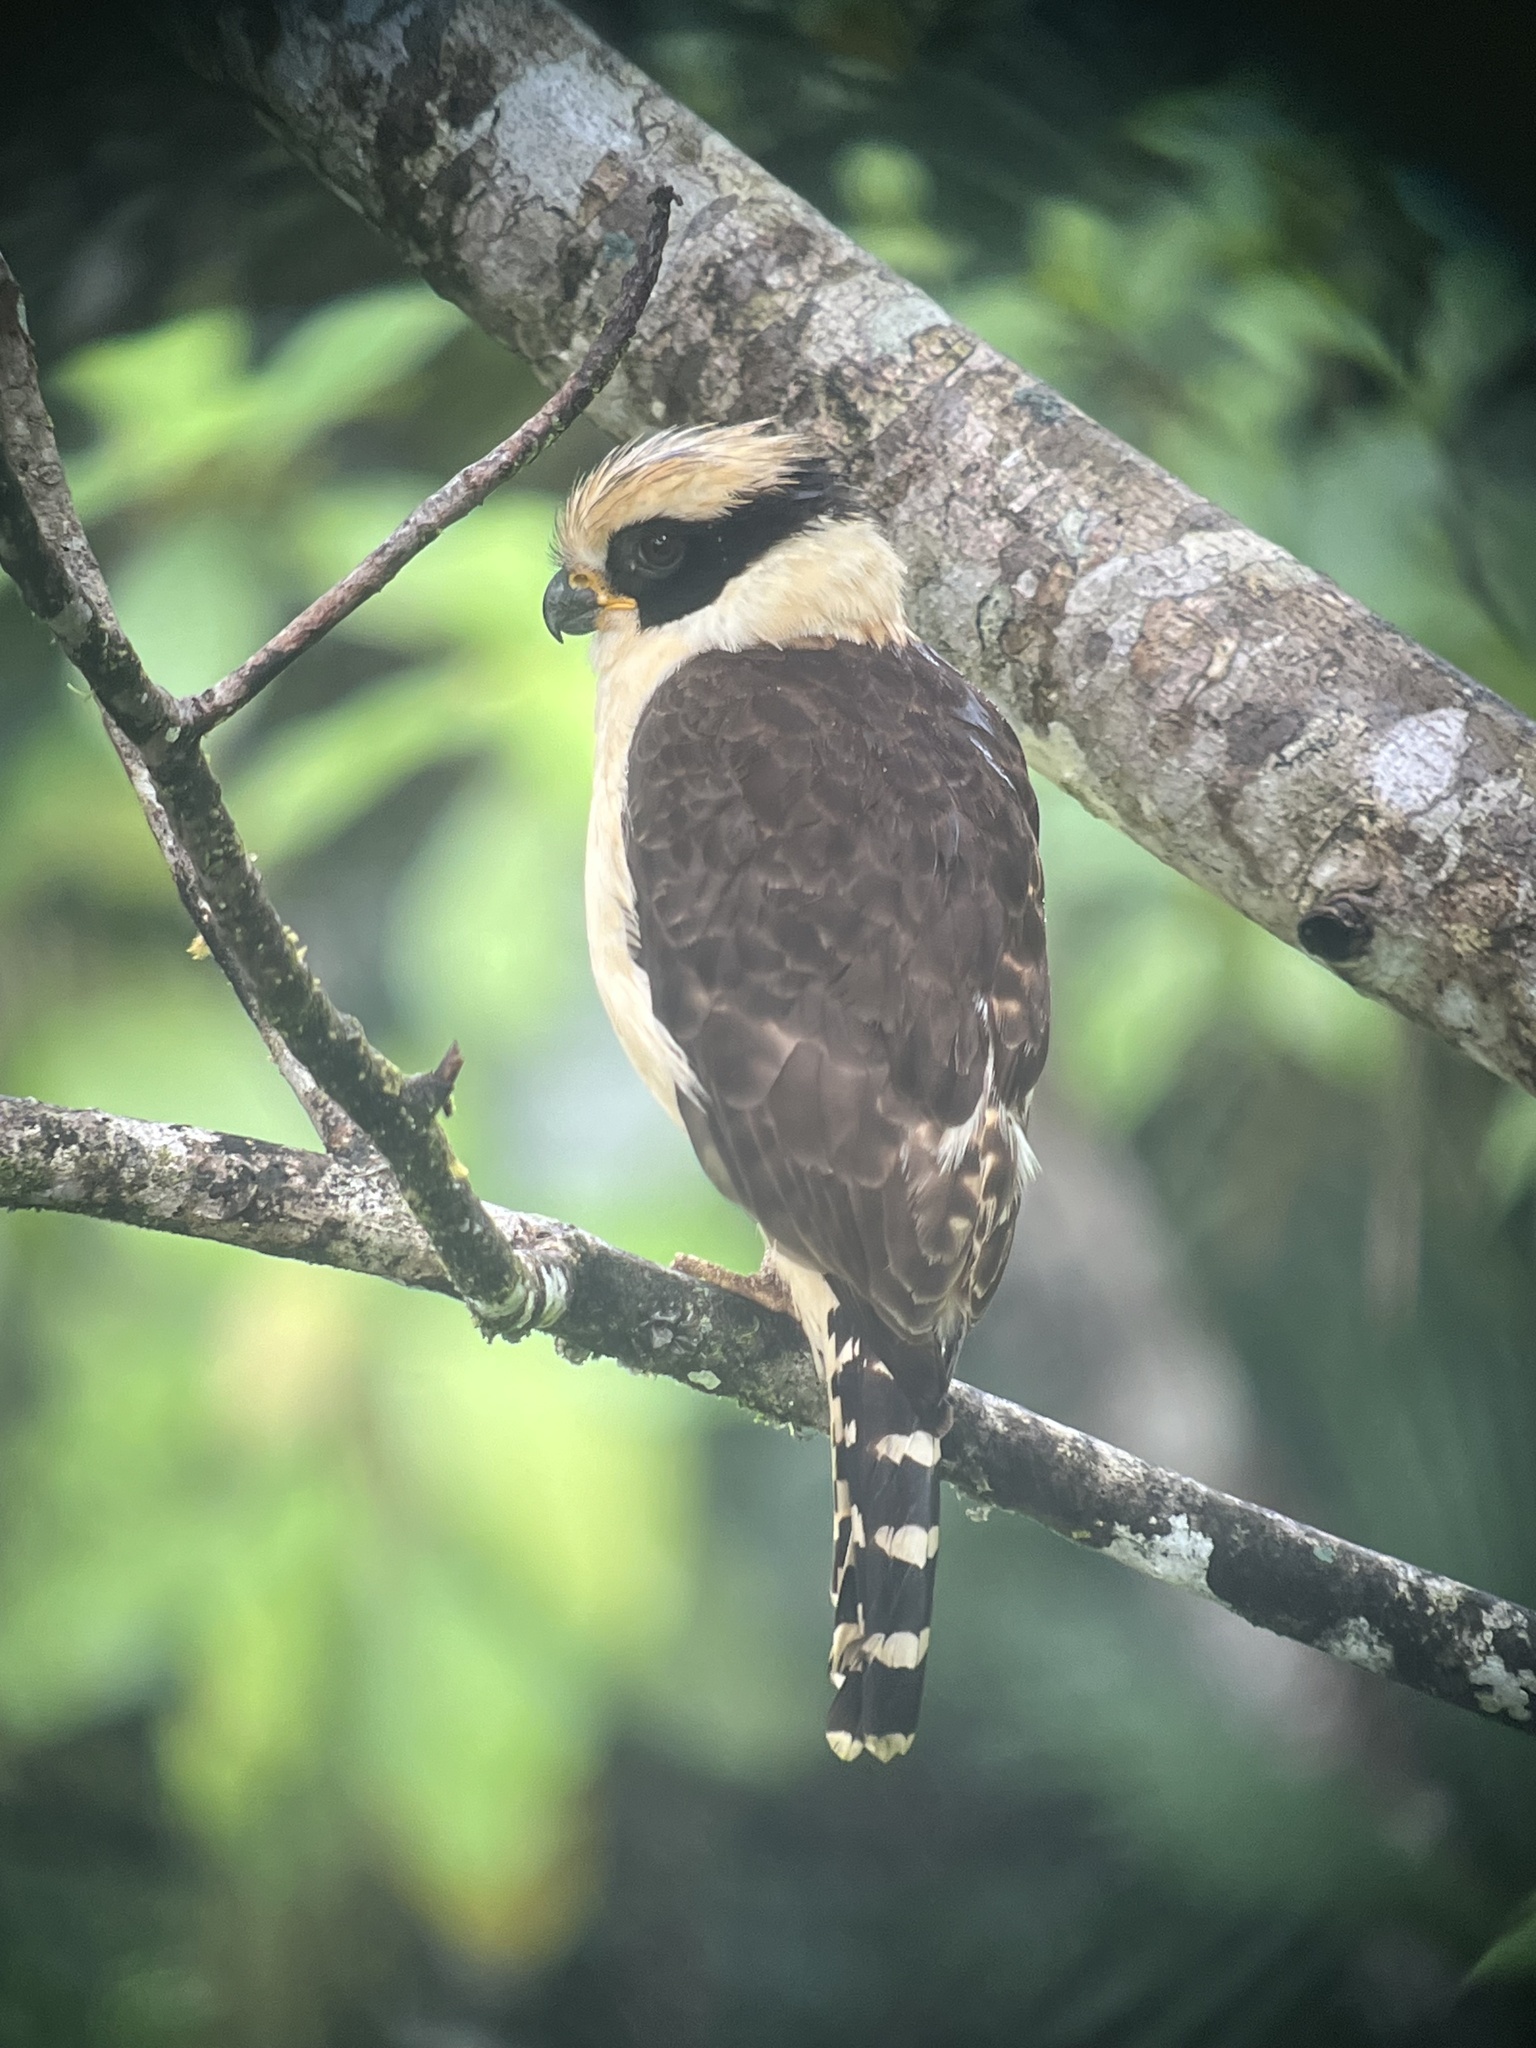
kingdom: Animalia
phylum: Chordata
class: Aves
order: Falconiformes
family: Falconidae
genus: Herpetotheres
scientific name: Herpetotheres cachinnans
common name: Laughing falcon
